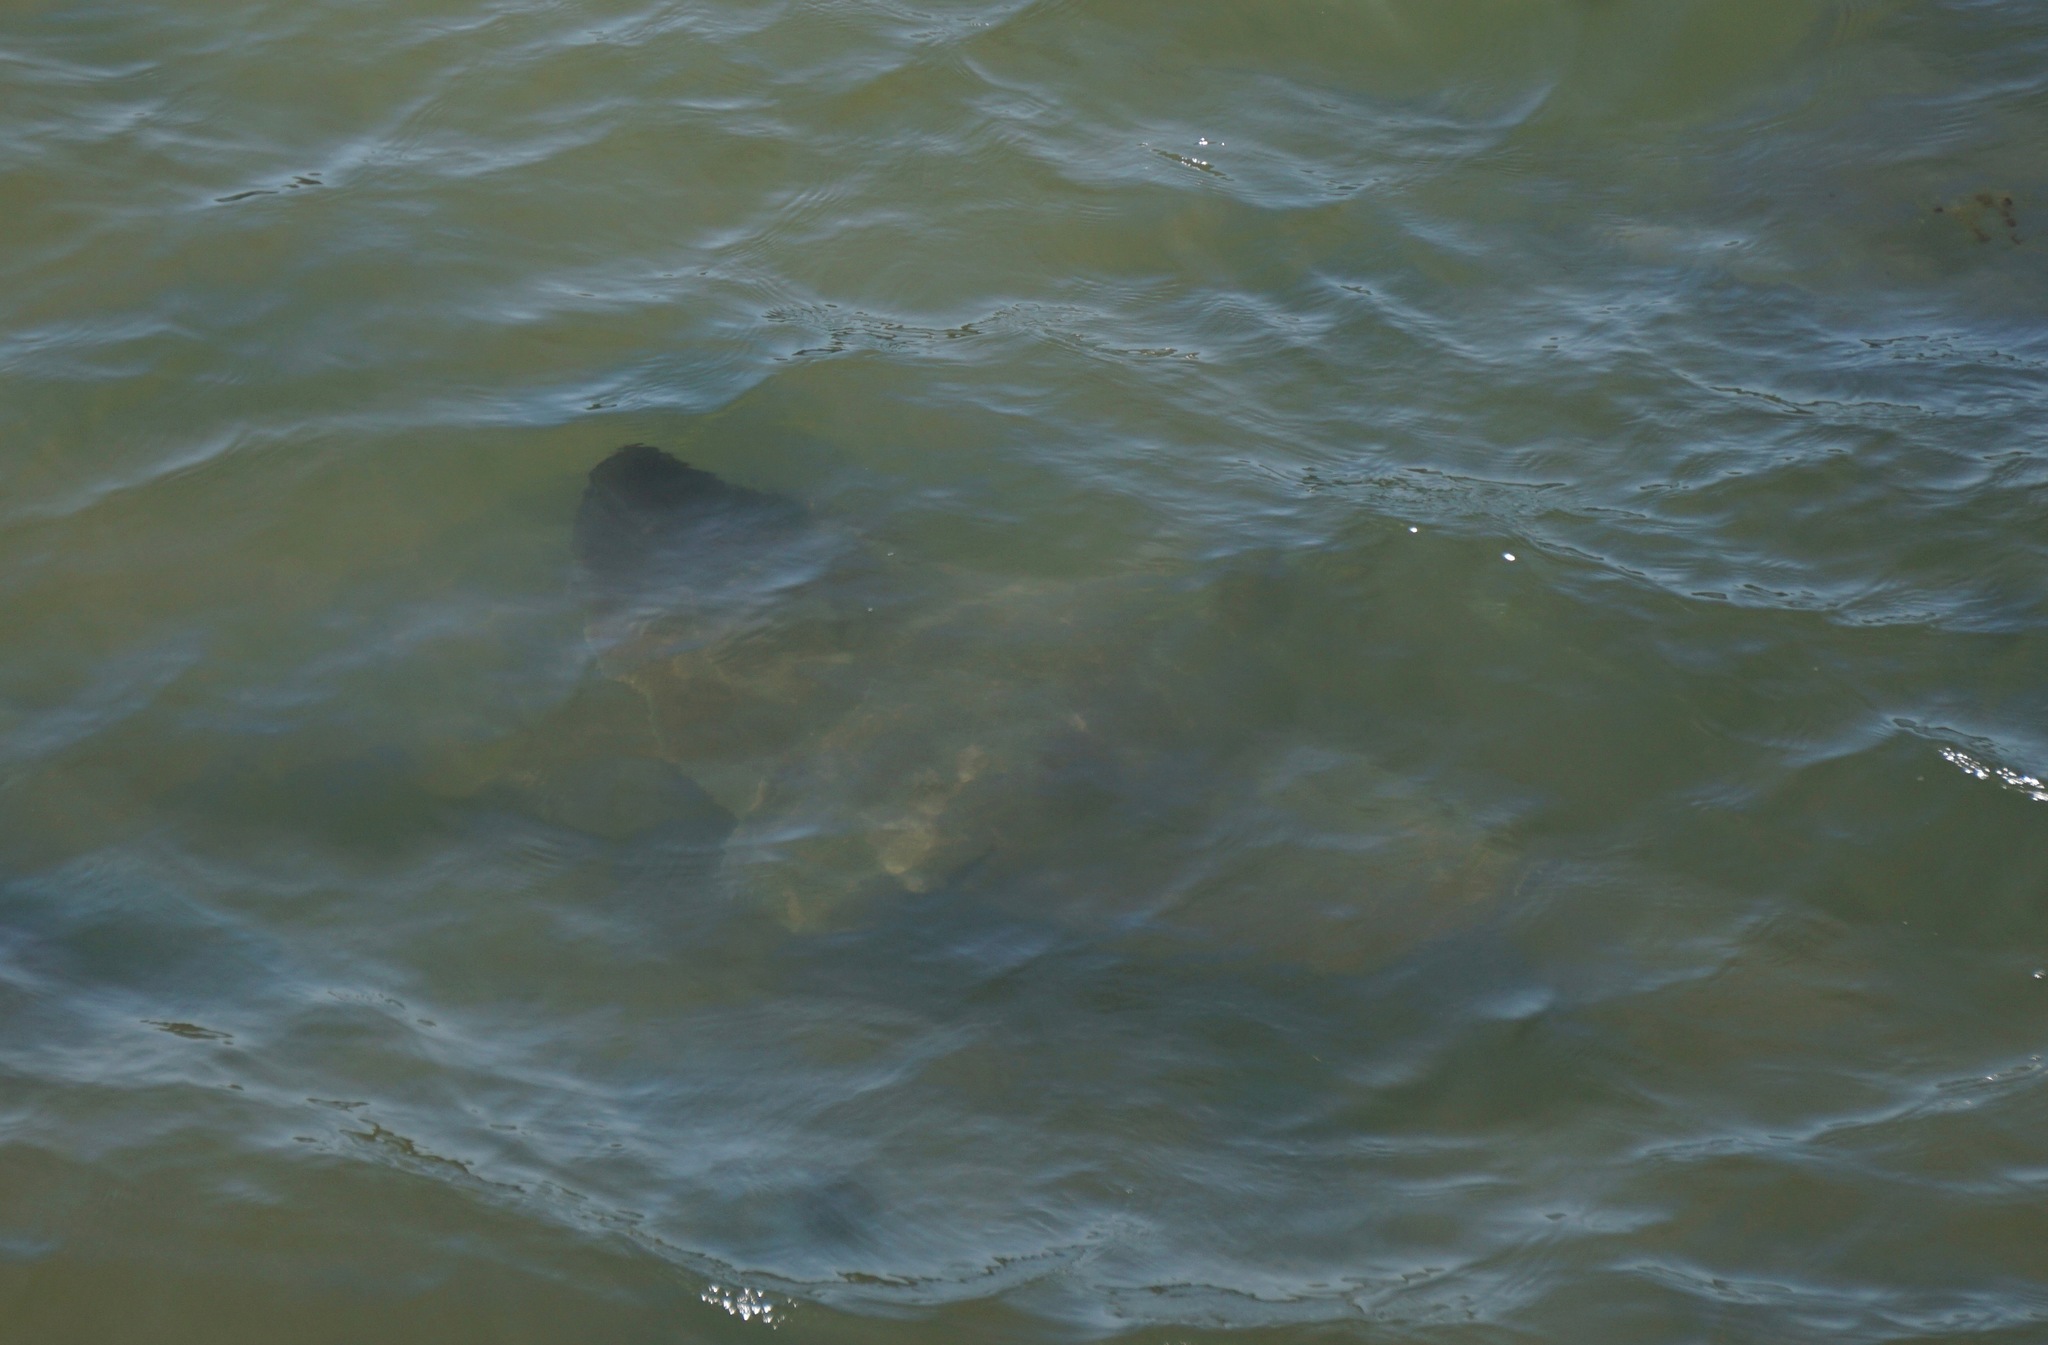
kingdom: Animalia
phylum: Chordata
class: Elasmobranchii
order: Myliobatiformes
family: Myliobatidae
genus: Myliobatis
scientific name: Myliobatis californica
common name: Bat ray
